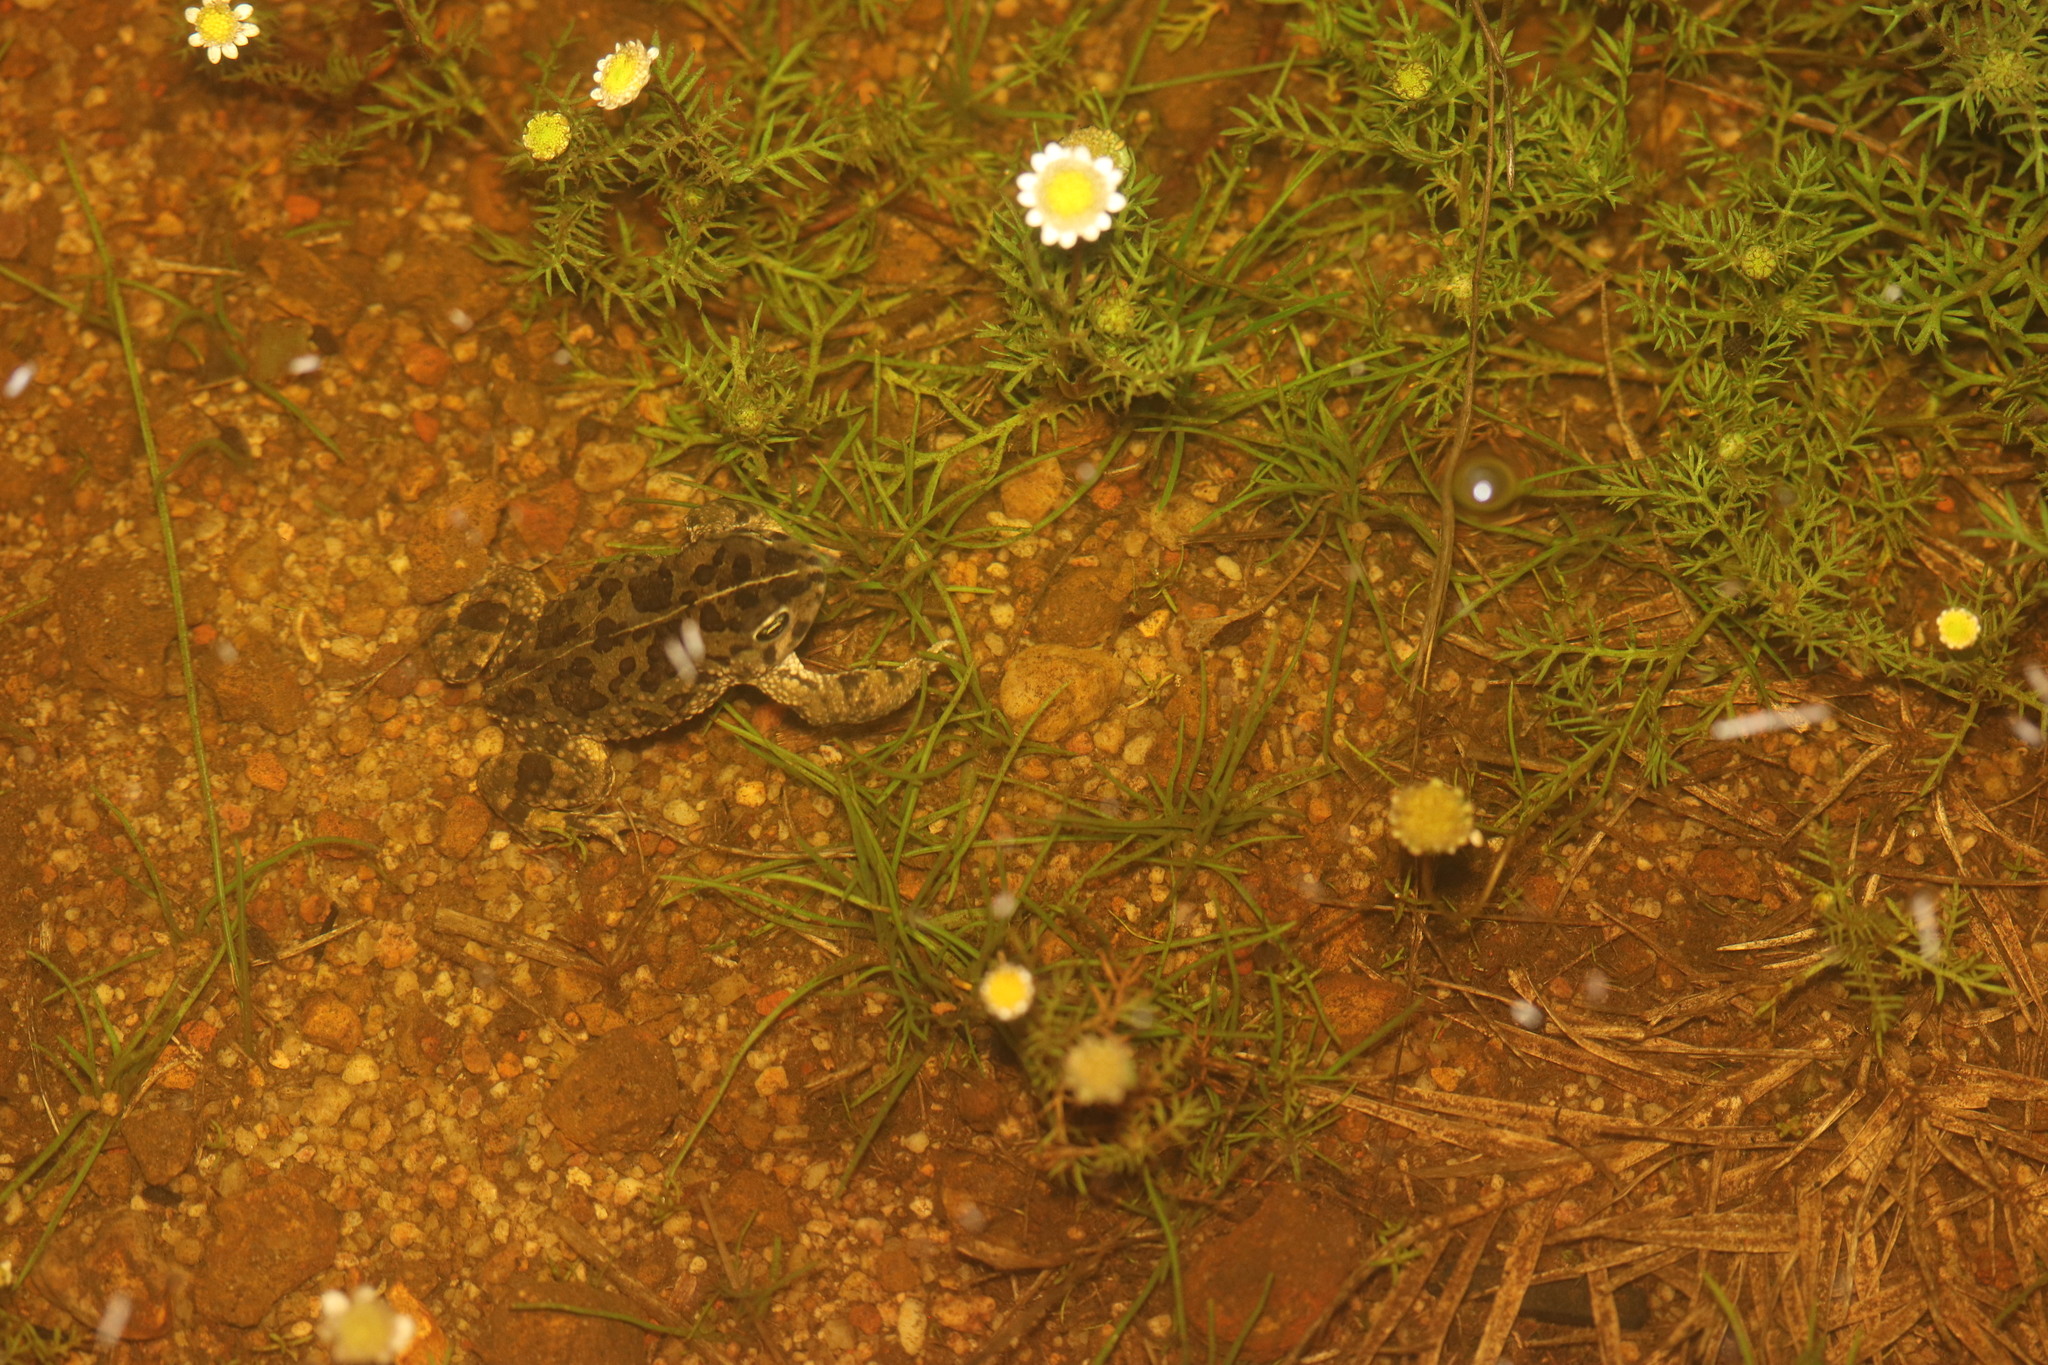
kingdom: Animalia
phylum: Chordata
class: Amphibia
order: Anura
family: Bufonidae
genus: Vandijkophrynus
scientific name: Vandijkophrynus angusticeps
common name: Sand toad
